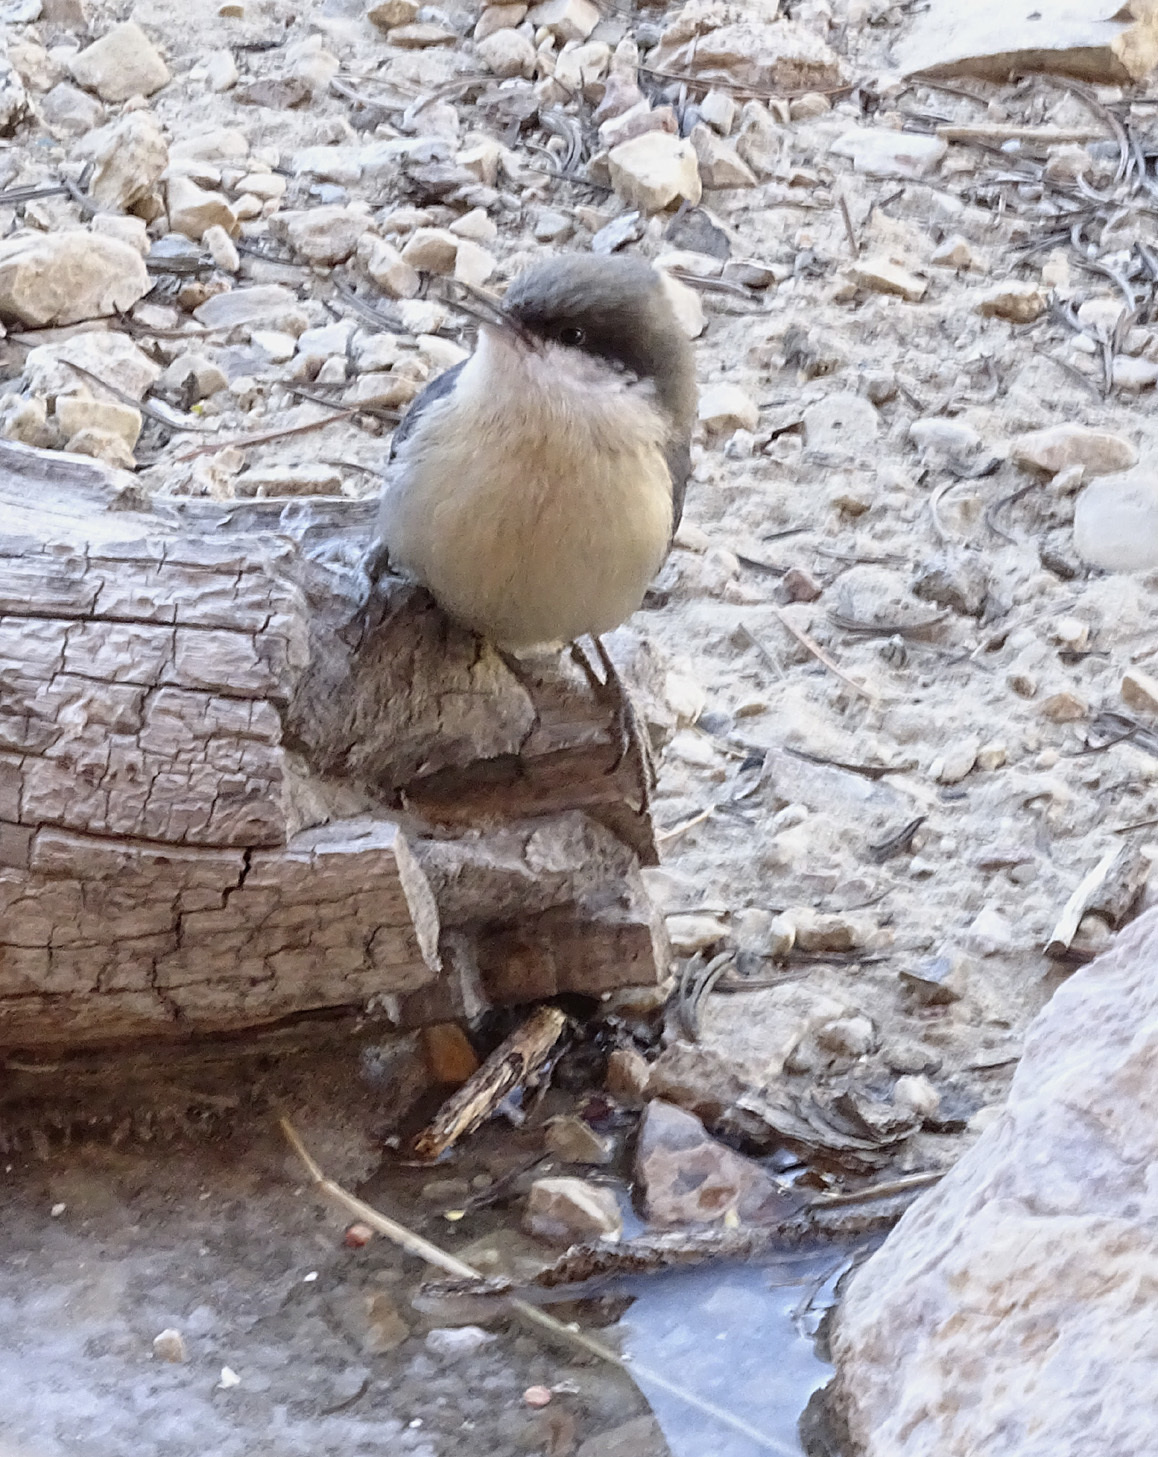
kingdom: Animalia
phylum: Chordata
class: Aves
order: Passeriformes
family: Sittidae
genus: Sitta
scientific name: Sitta pygmaea
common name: Pygmy nuthatch
